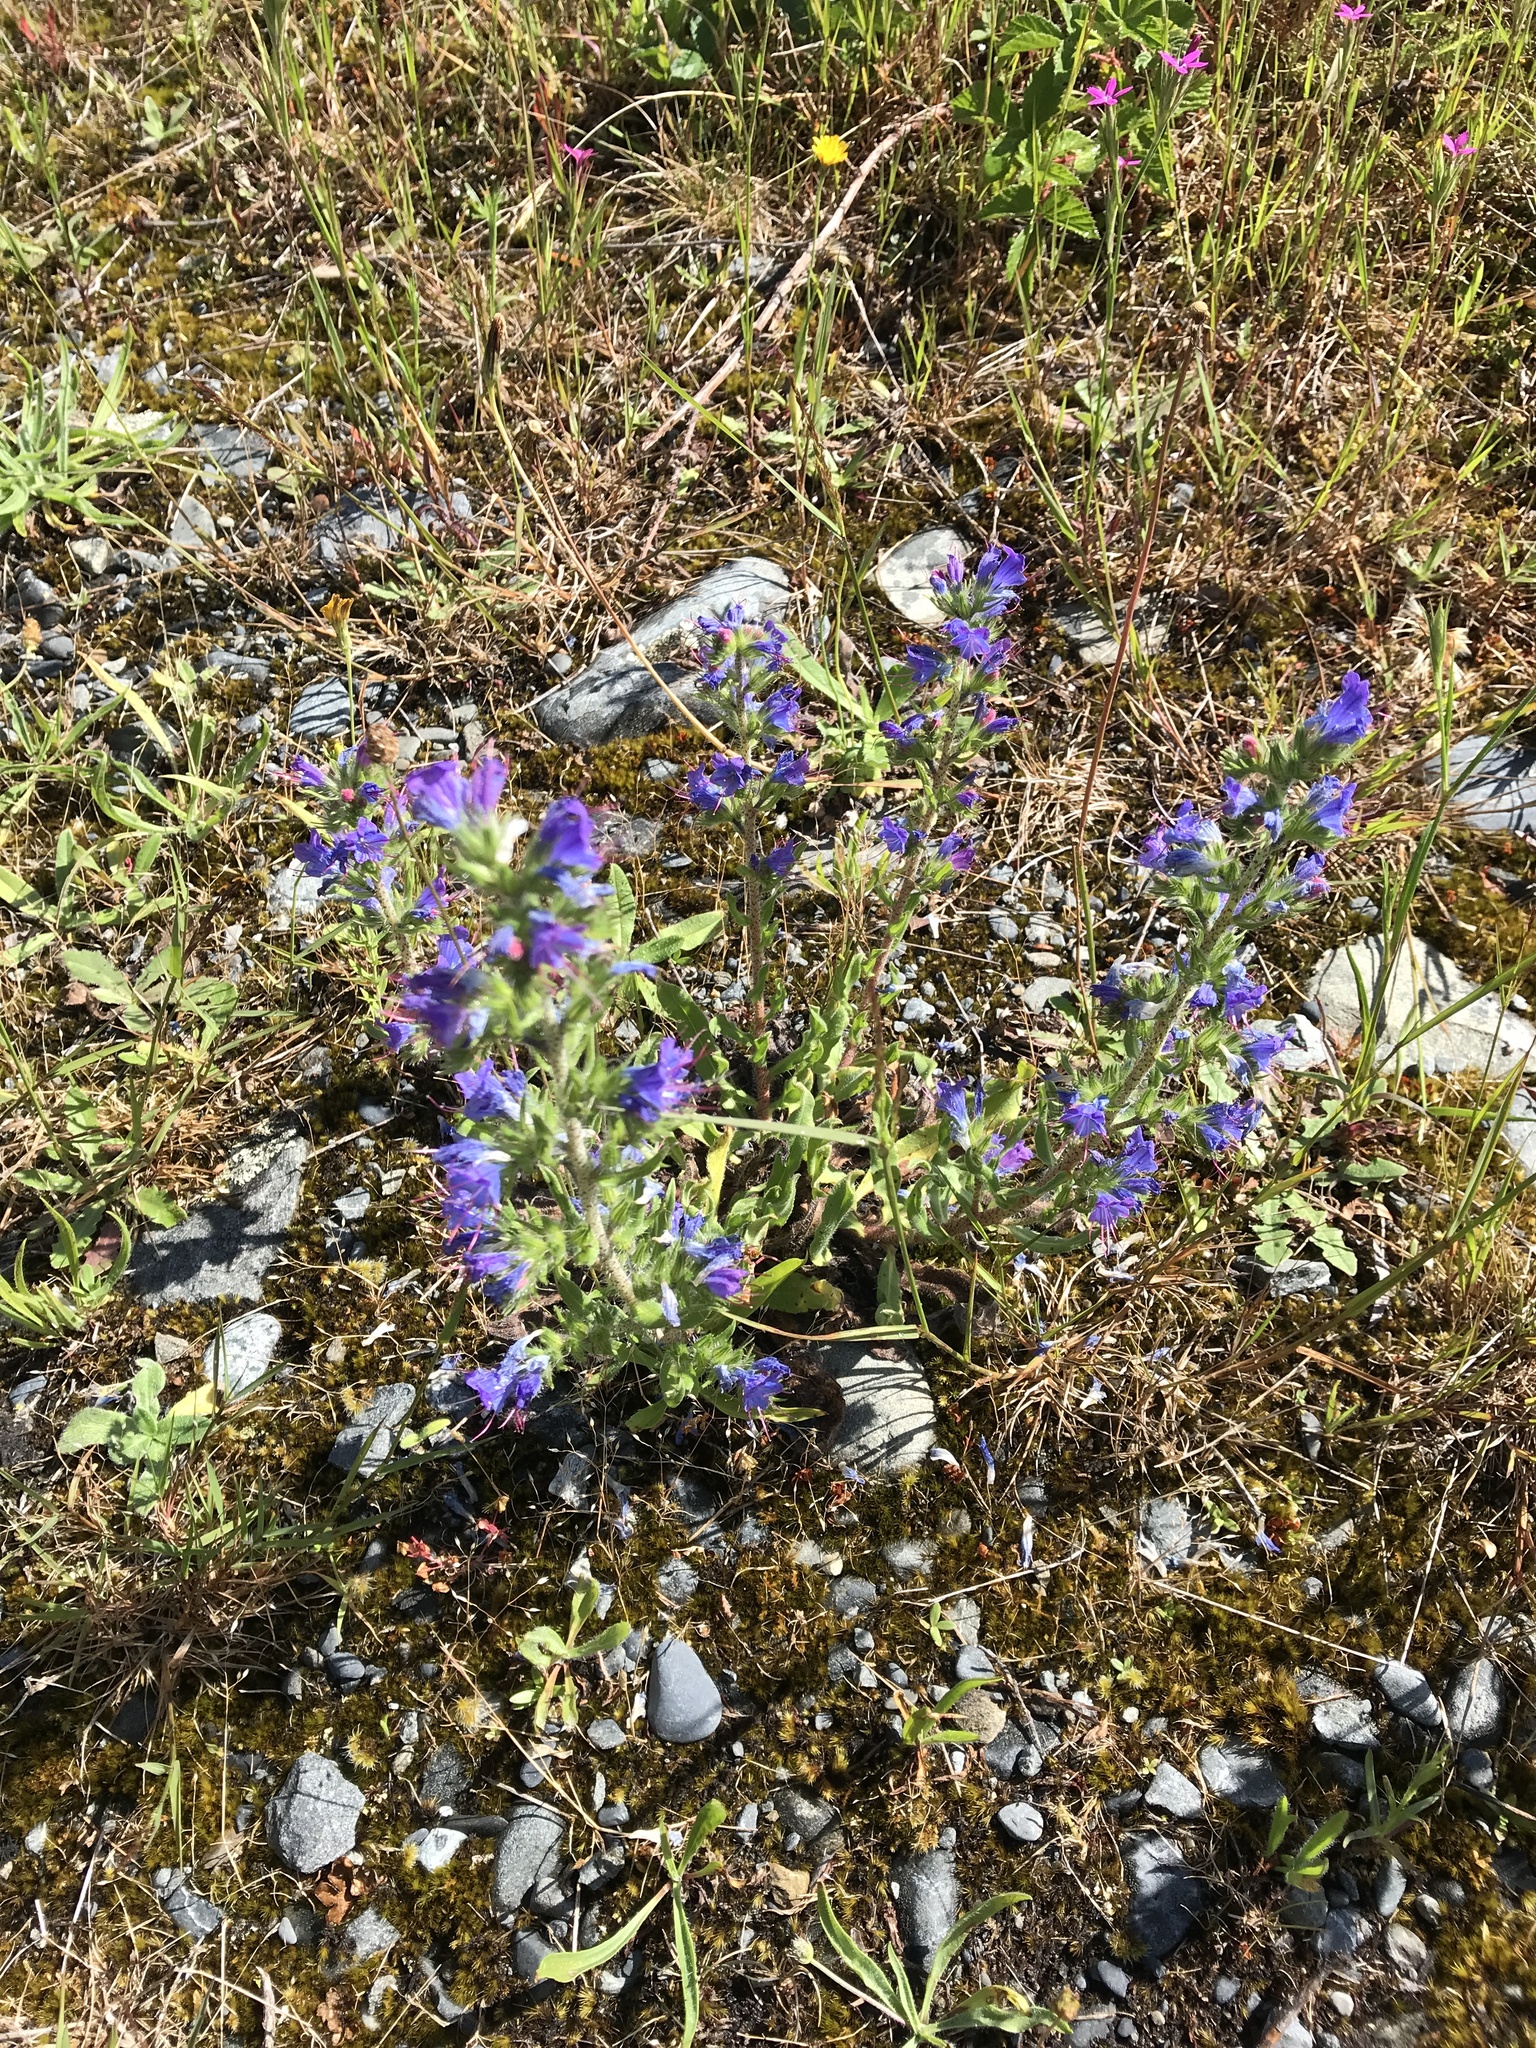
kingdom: Plantae
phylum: Tracheophyta
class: Magnoliopsida
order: Boraginales
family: Boraginaceae
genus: Echium
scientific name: Echium vulgare
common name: Common viper's bugloss
